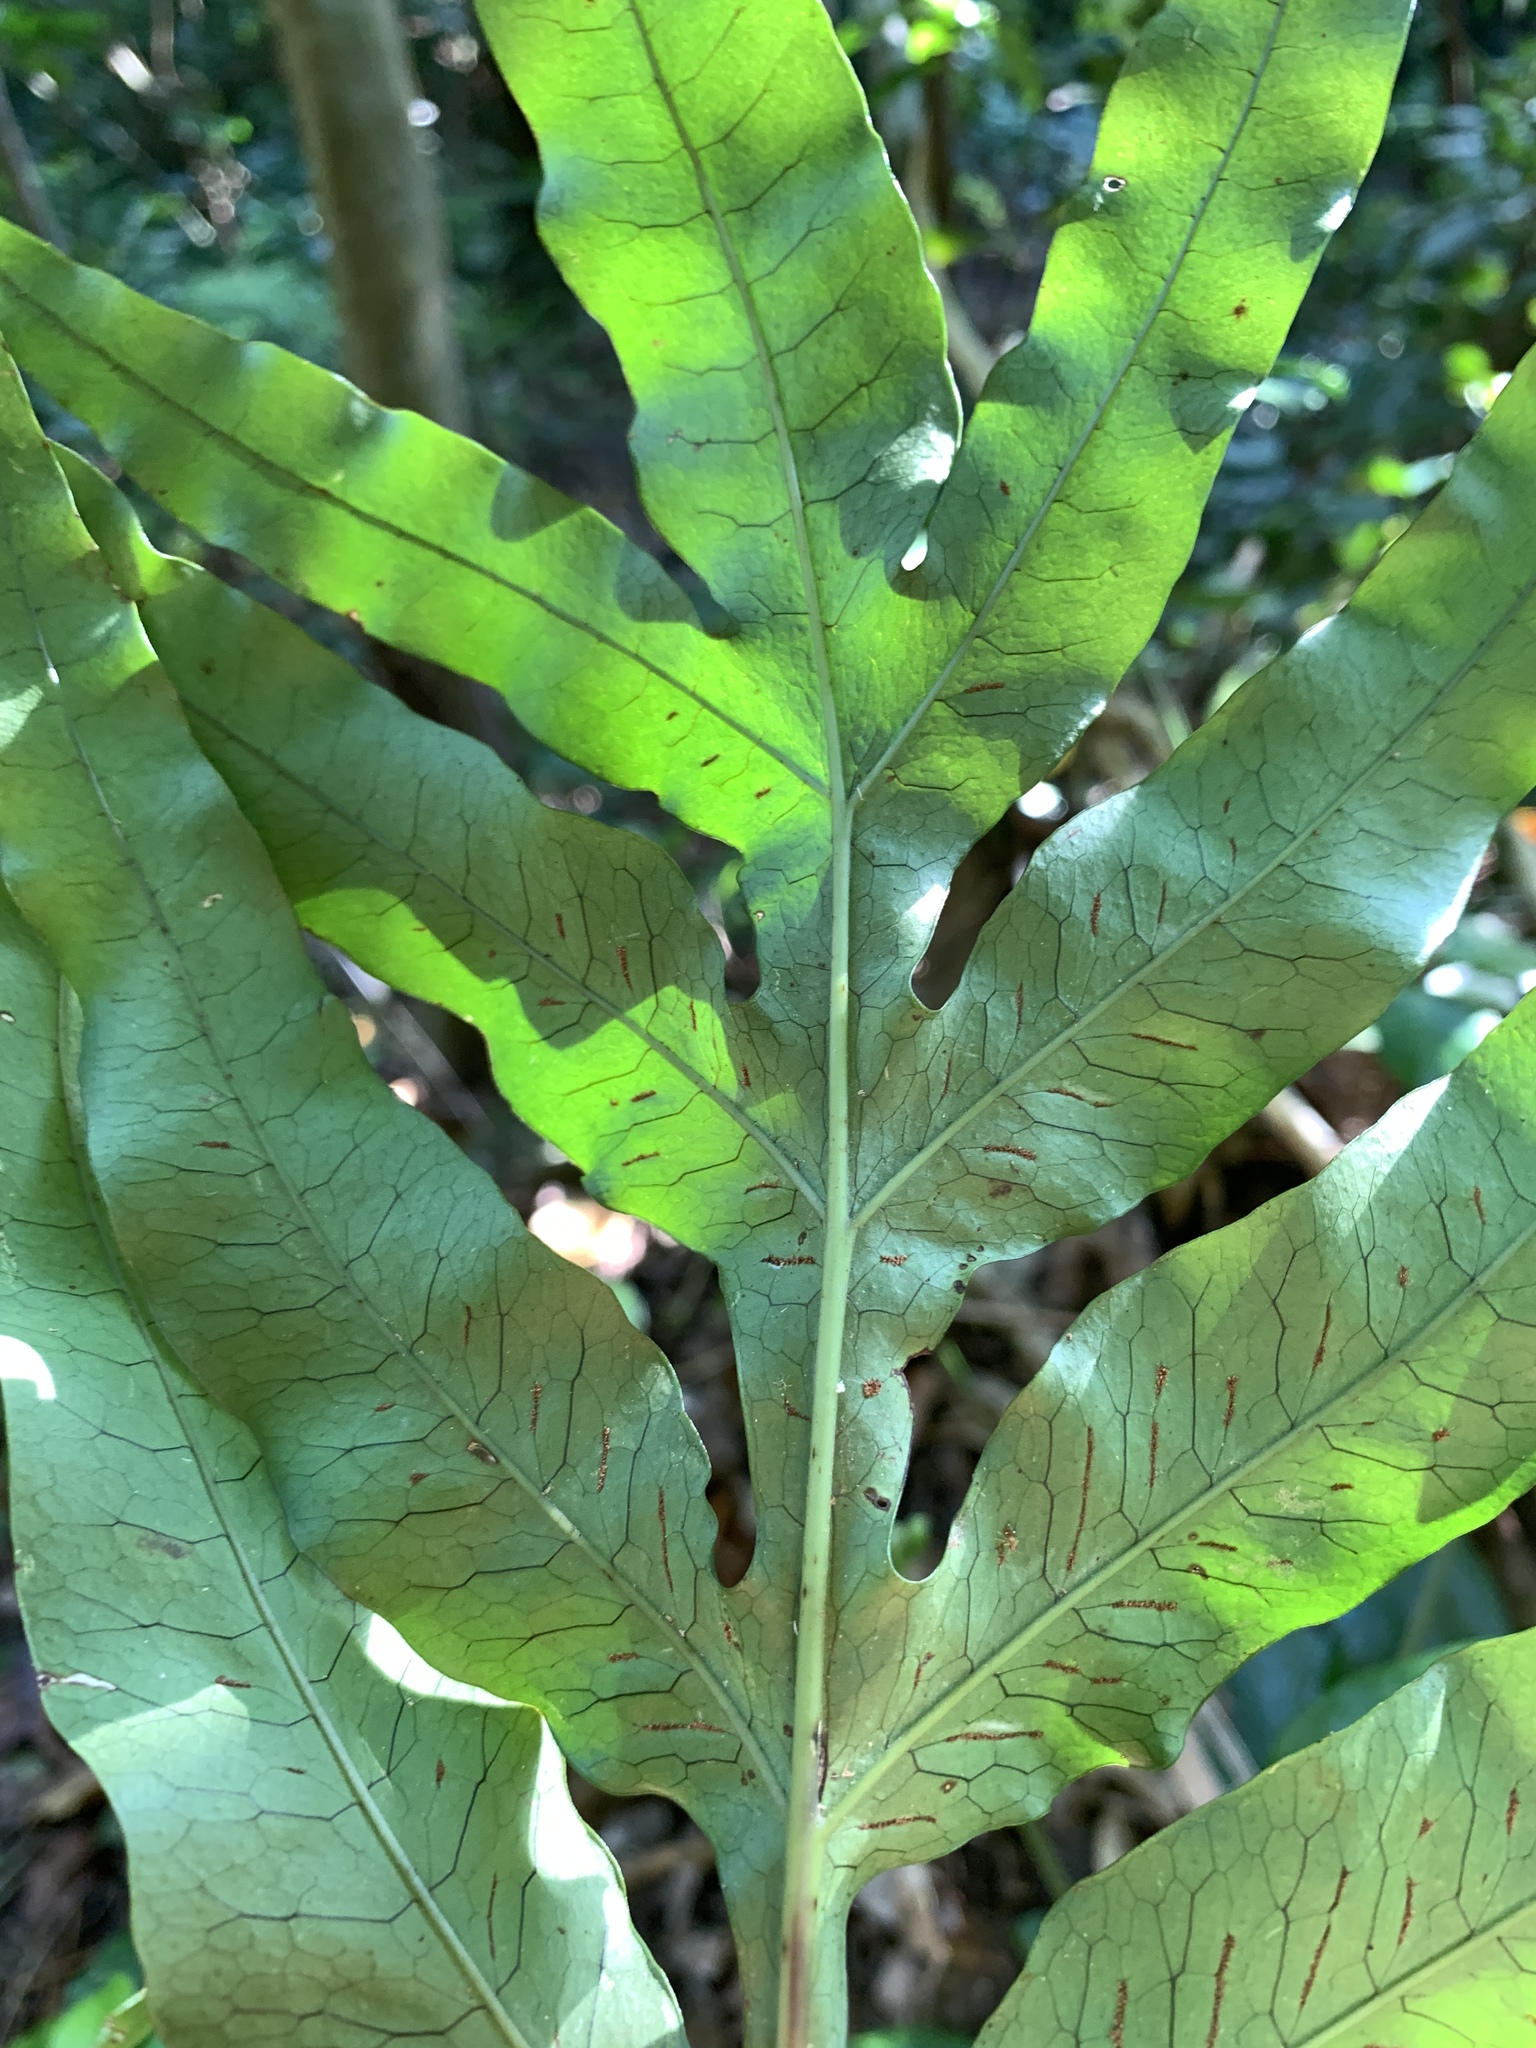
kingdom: Plantae
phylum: Tracheophyta
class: Polypodiopsida
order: Polypodiales
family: Polypodiaceae
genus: Leptochilus
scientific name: Leptochilus ellipticus
